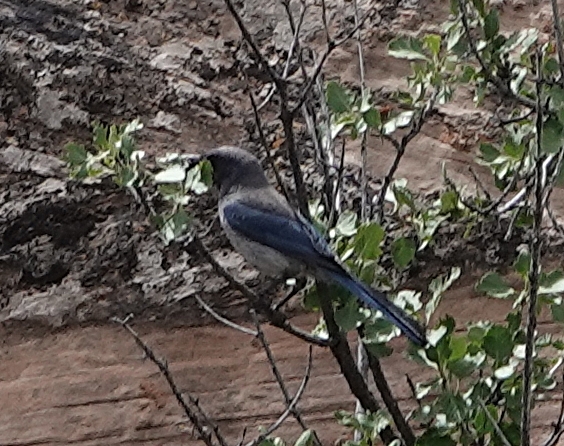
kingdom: Animalia
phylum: Chordata
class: Aves
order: Passeriformes
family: Corvidae
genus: Aphelocoma
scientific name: Aphelocoma woodhouseii
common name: Woodhouse's scrub-jay
